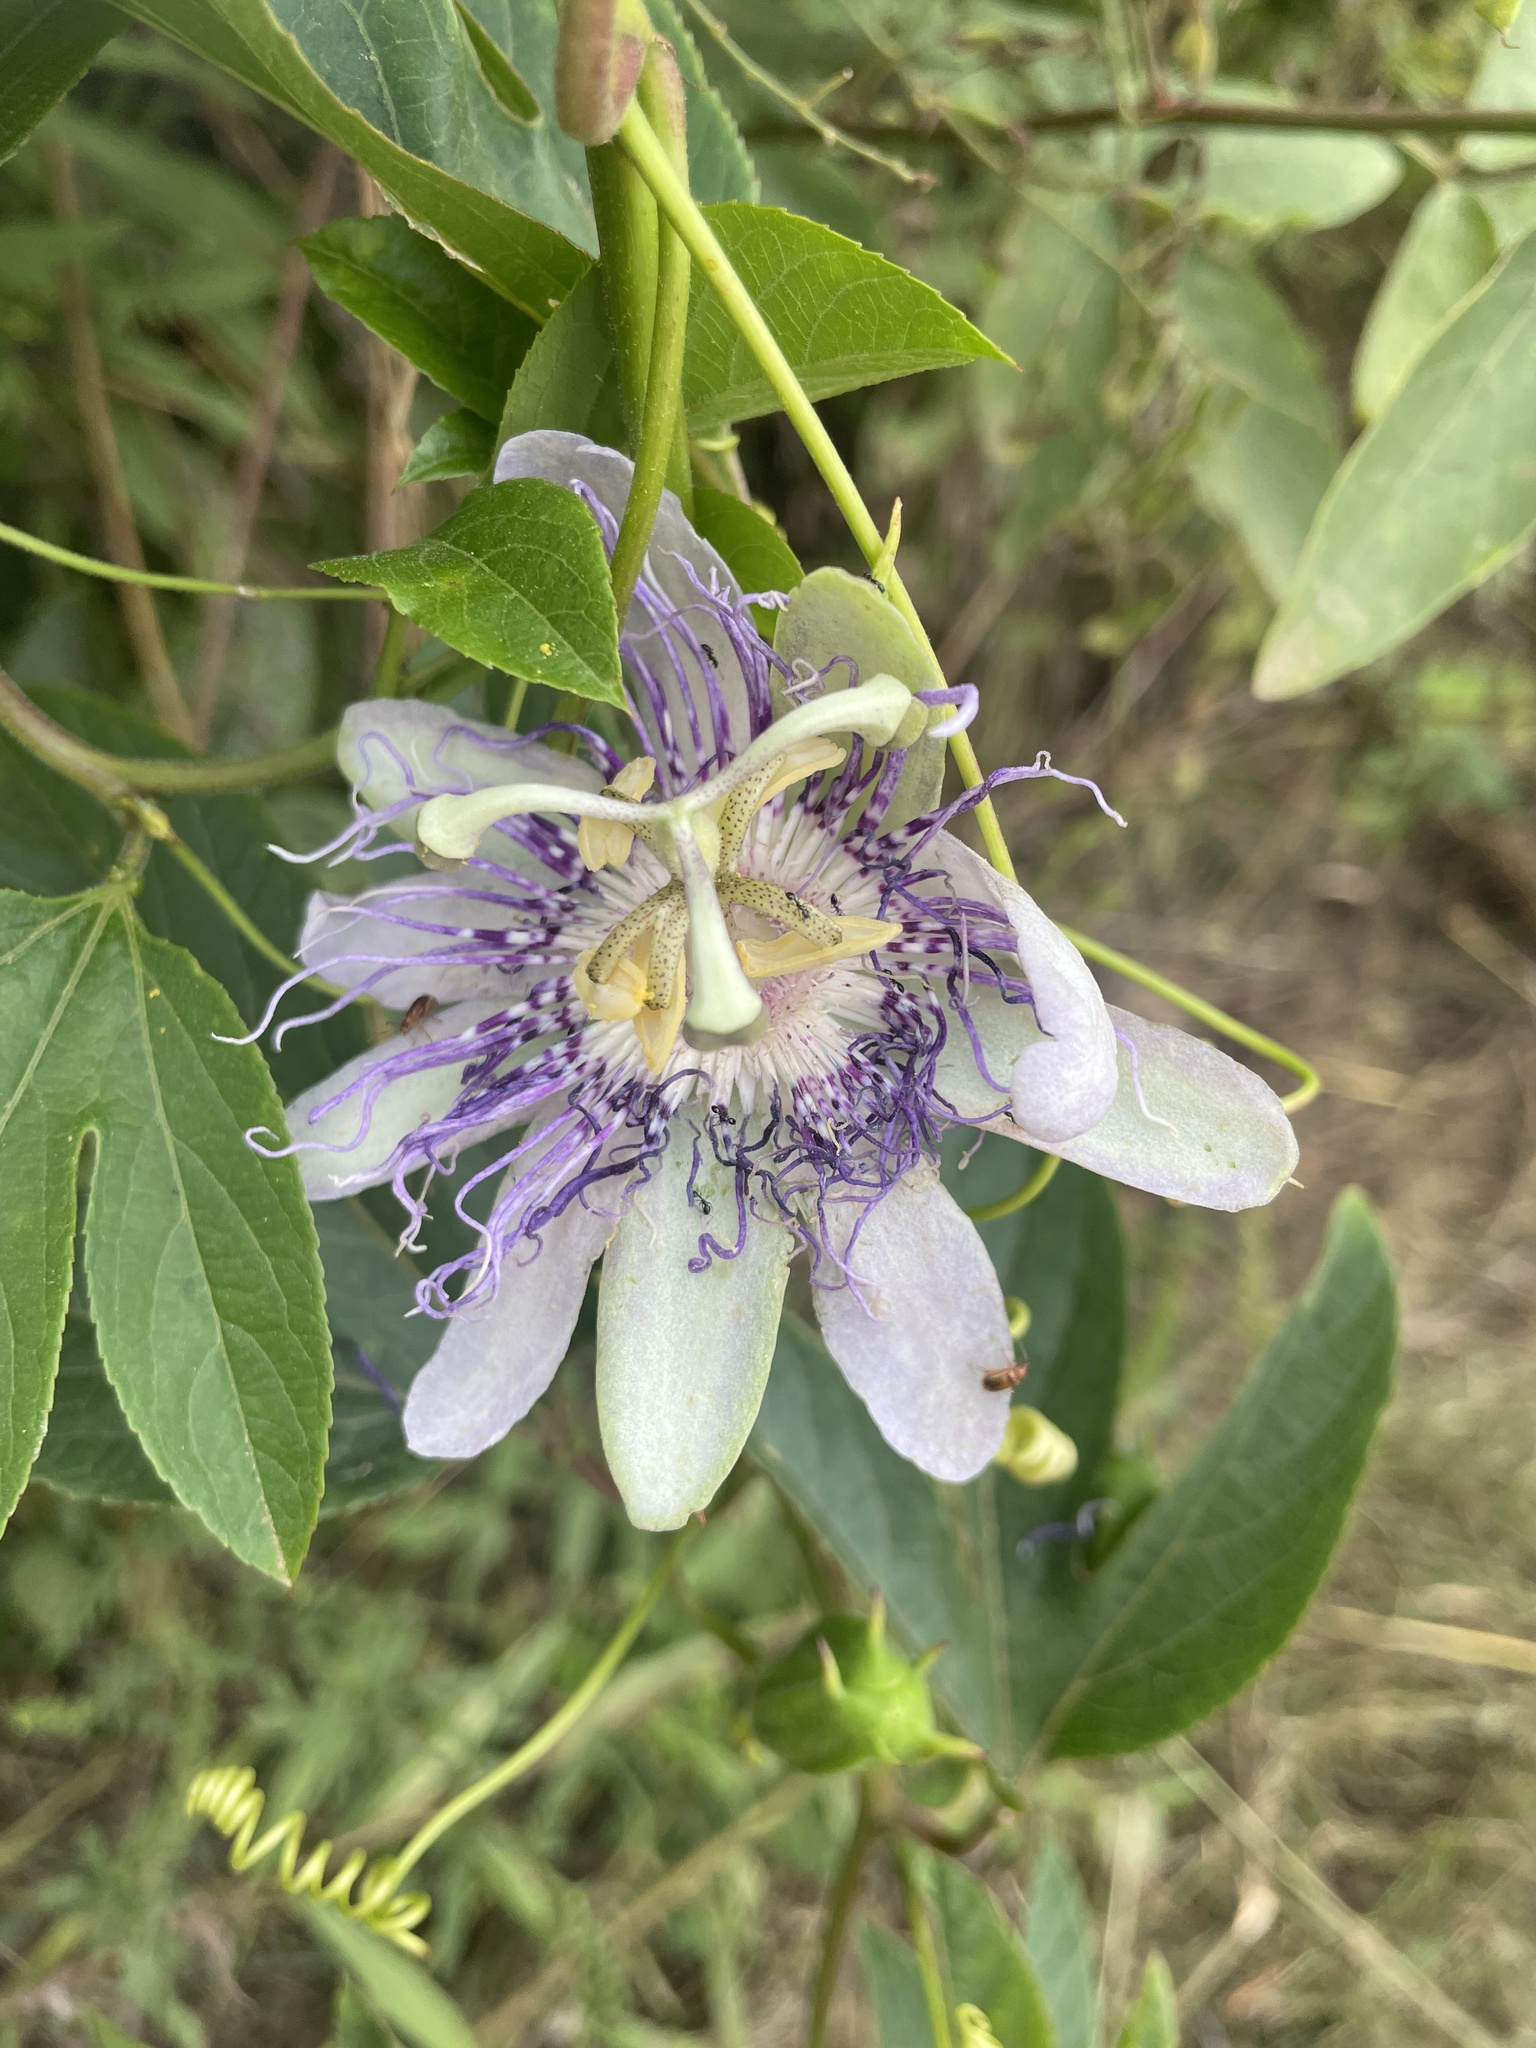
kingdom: Plantae
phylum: Tracheophyta
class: Magnoliopsida
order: Malpighiales
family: Passifloraceae
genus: Passiflora
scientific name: Passiflora incarnata
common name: Apricot-vine
